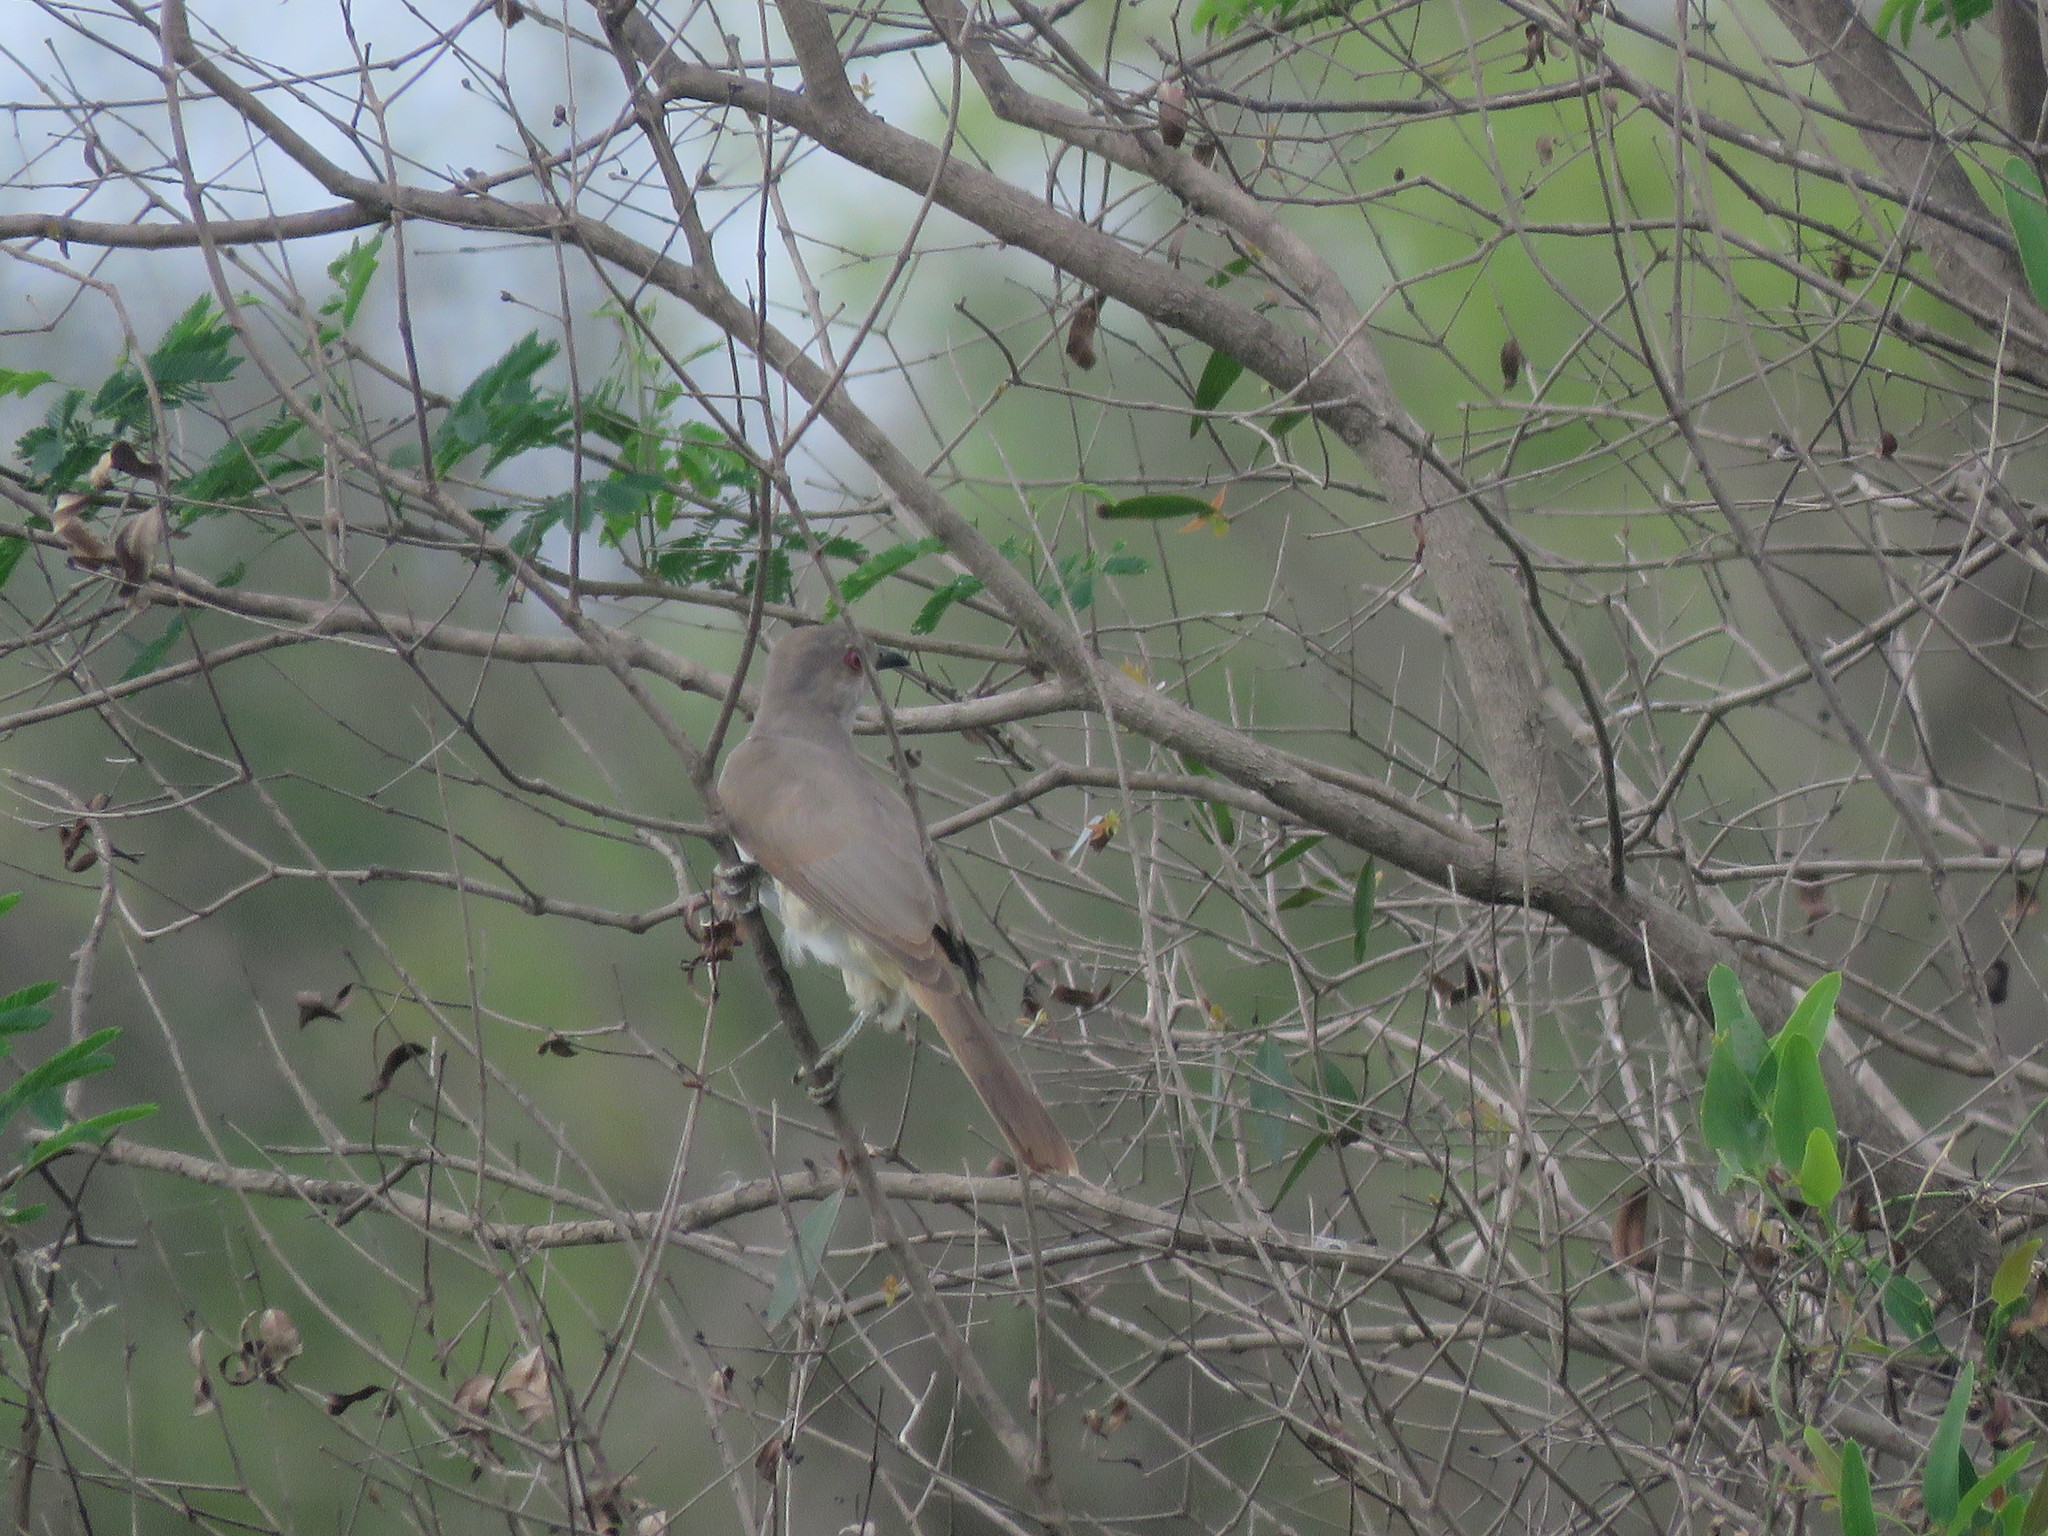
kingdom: Animalia
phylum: Chordata
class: Aves
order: Cuculiformes
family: Cuculidae
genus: Coccyzus
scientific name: Coccyzus cinereus
